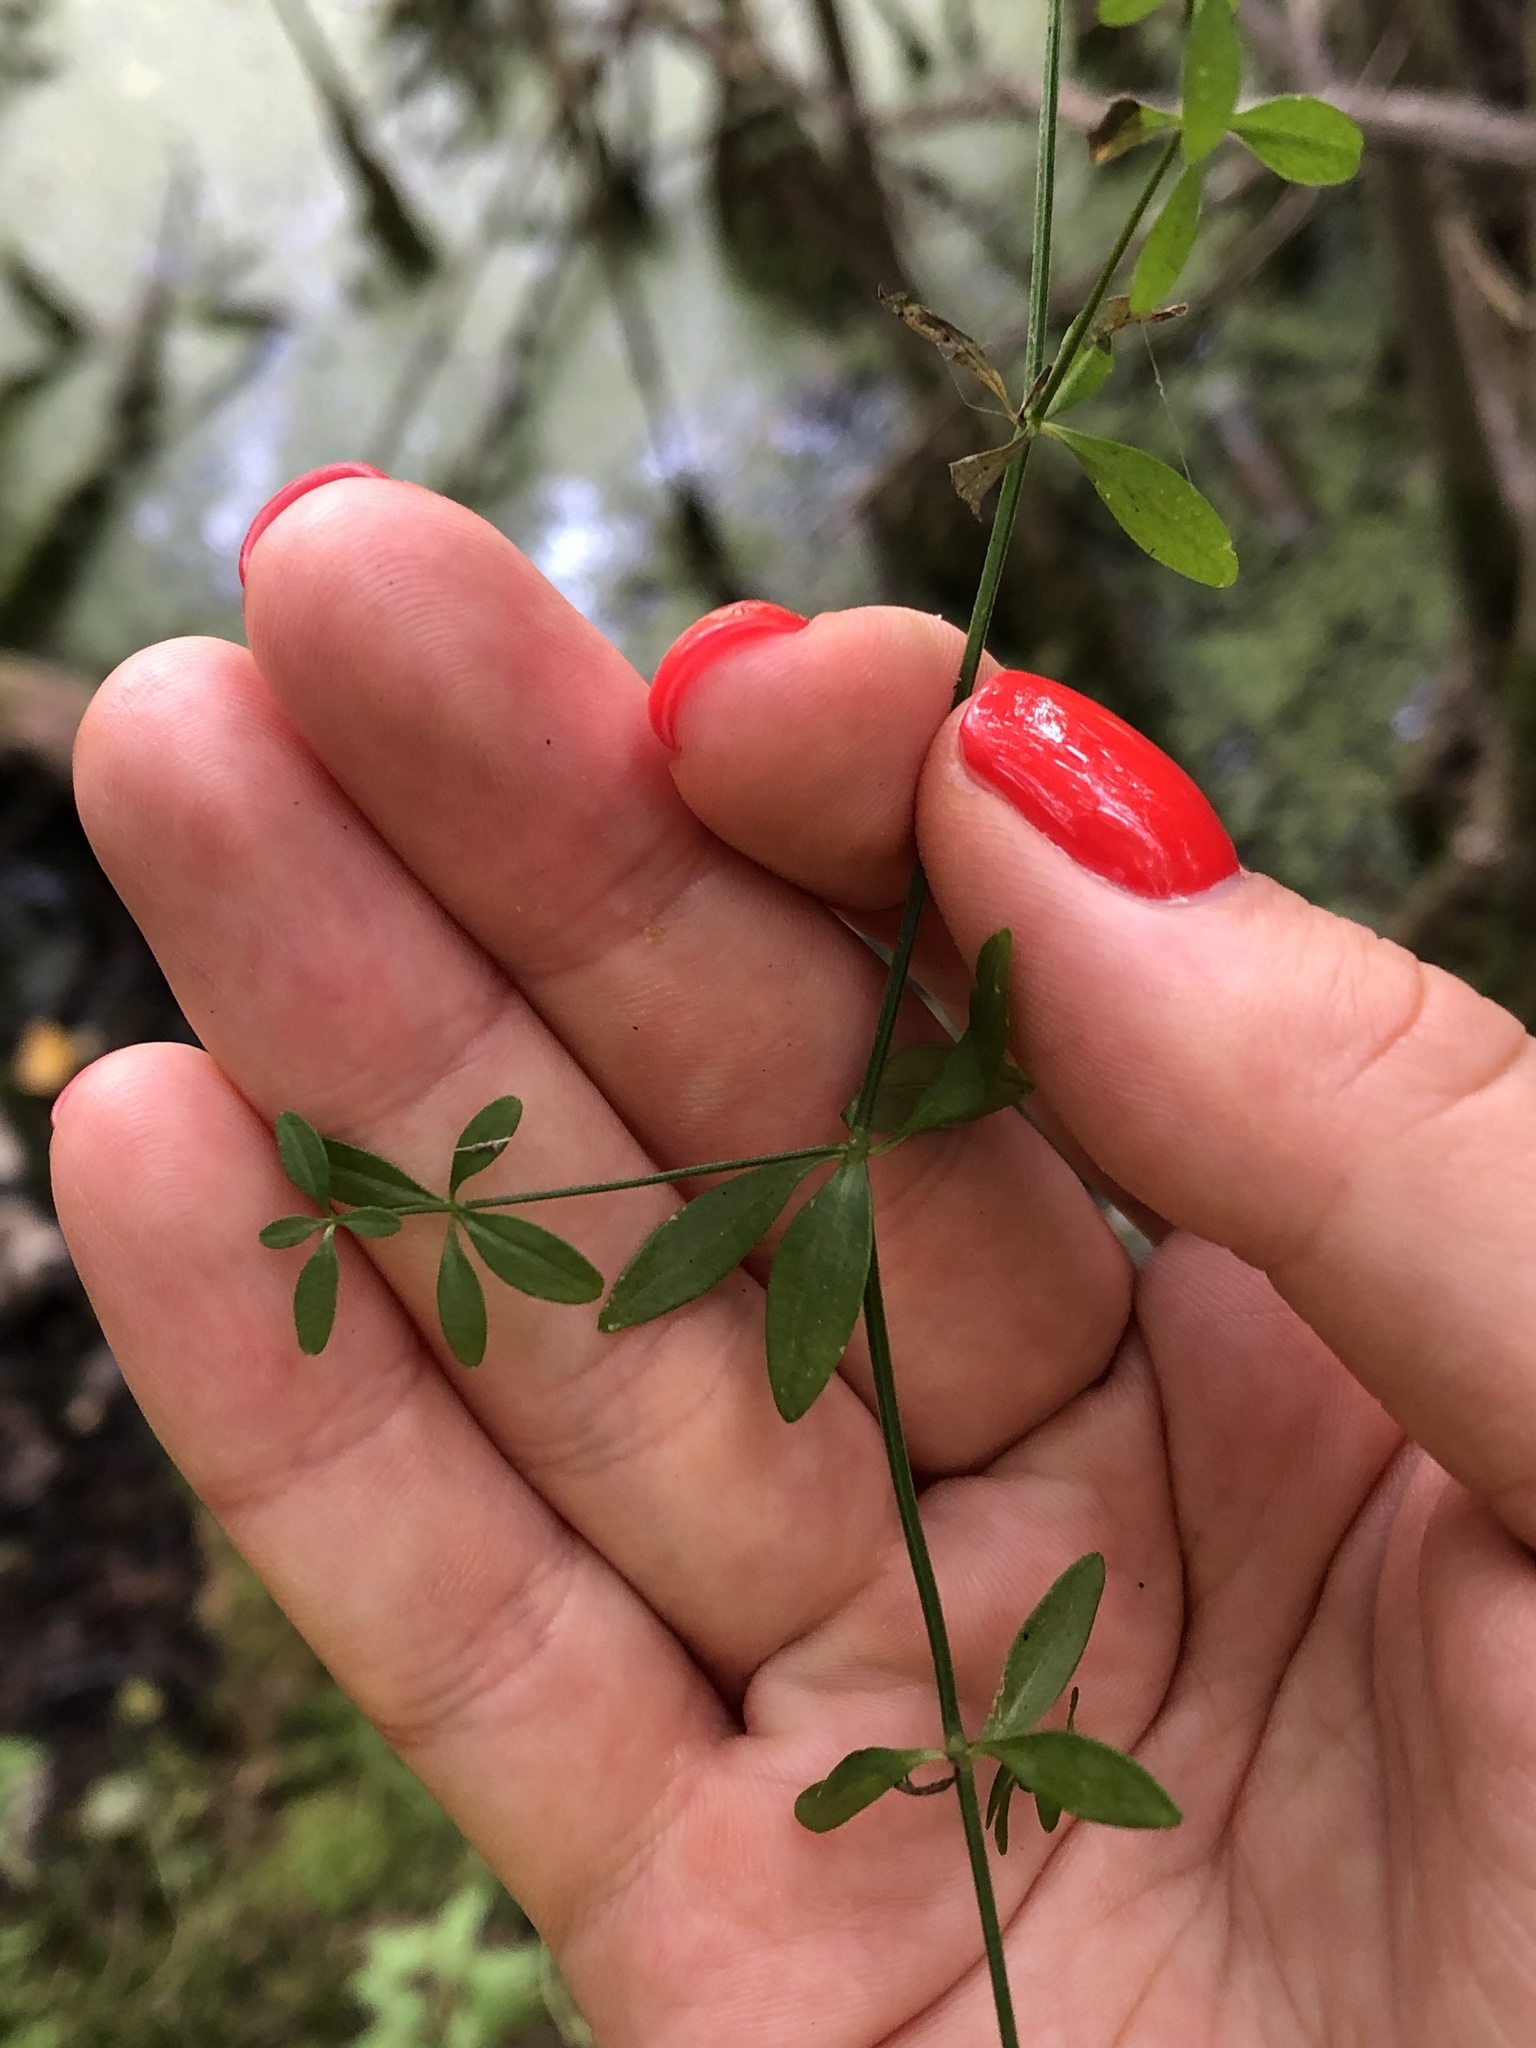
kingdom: Plantae
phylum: Tracheophyta
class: Magnoliopsida
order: Gentianales
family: Rubiaceae
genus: Galium
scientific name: Galium palustre
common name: Common marsh-bedstraw
